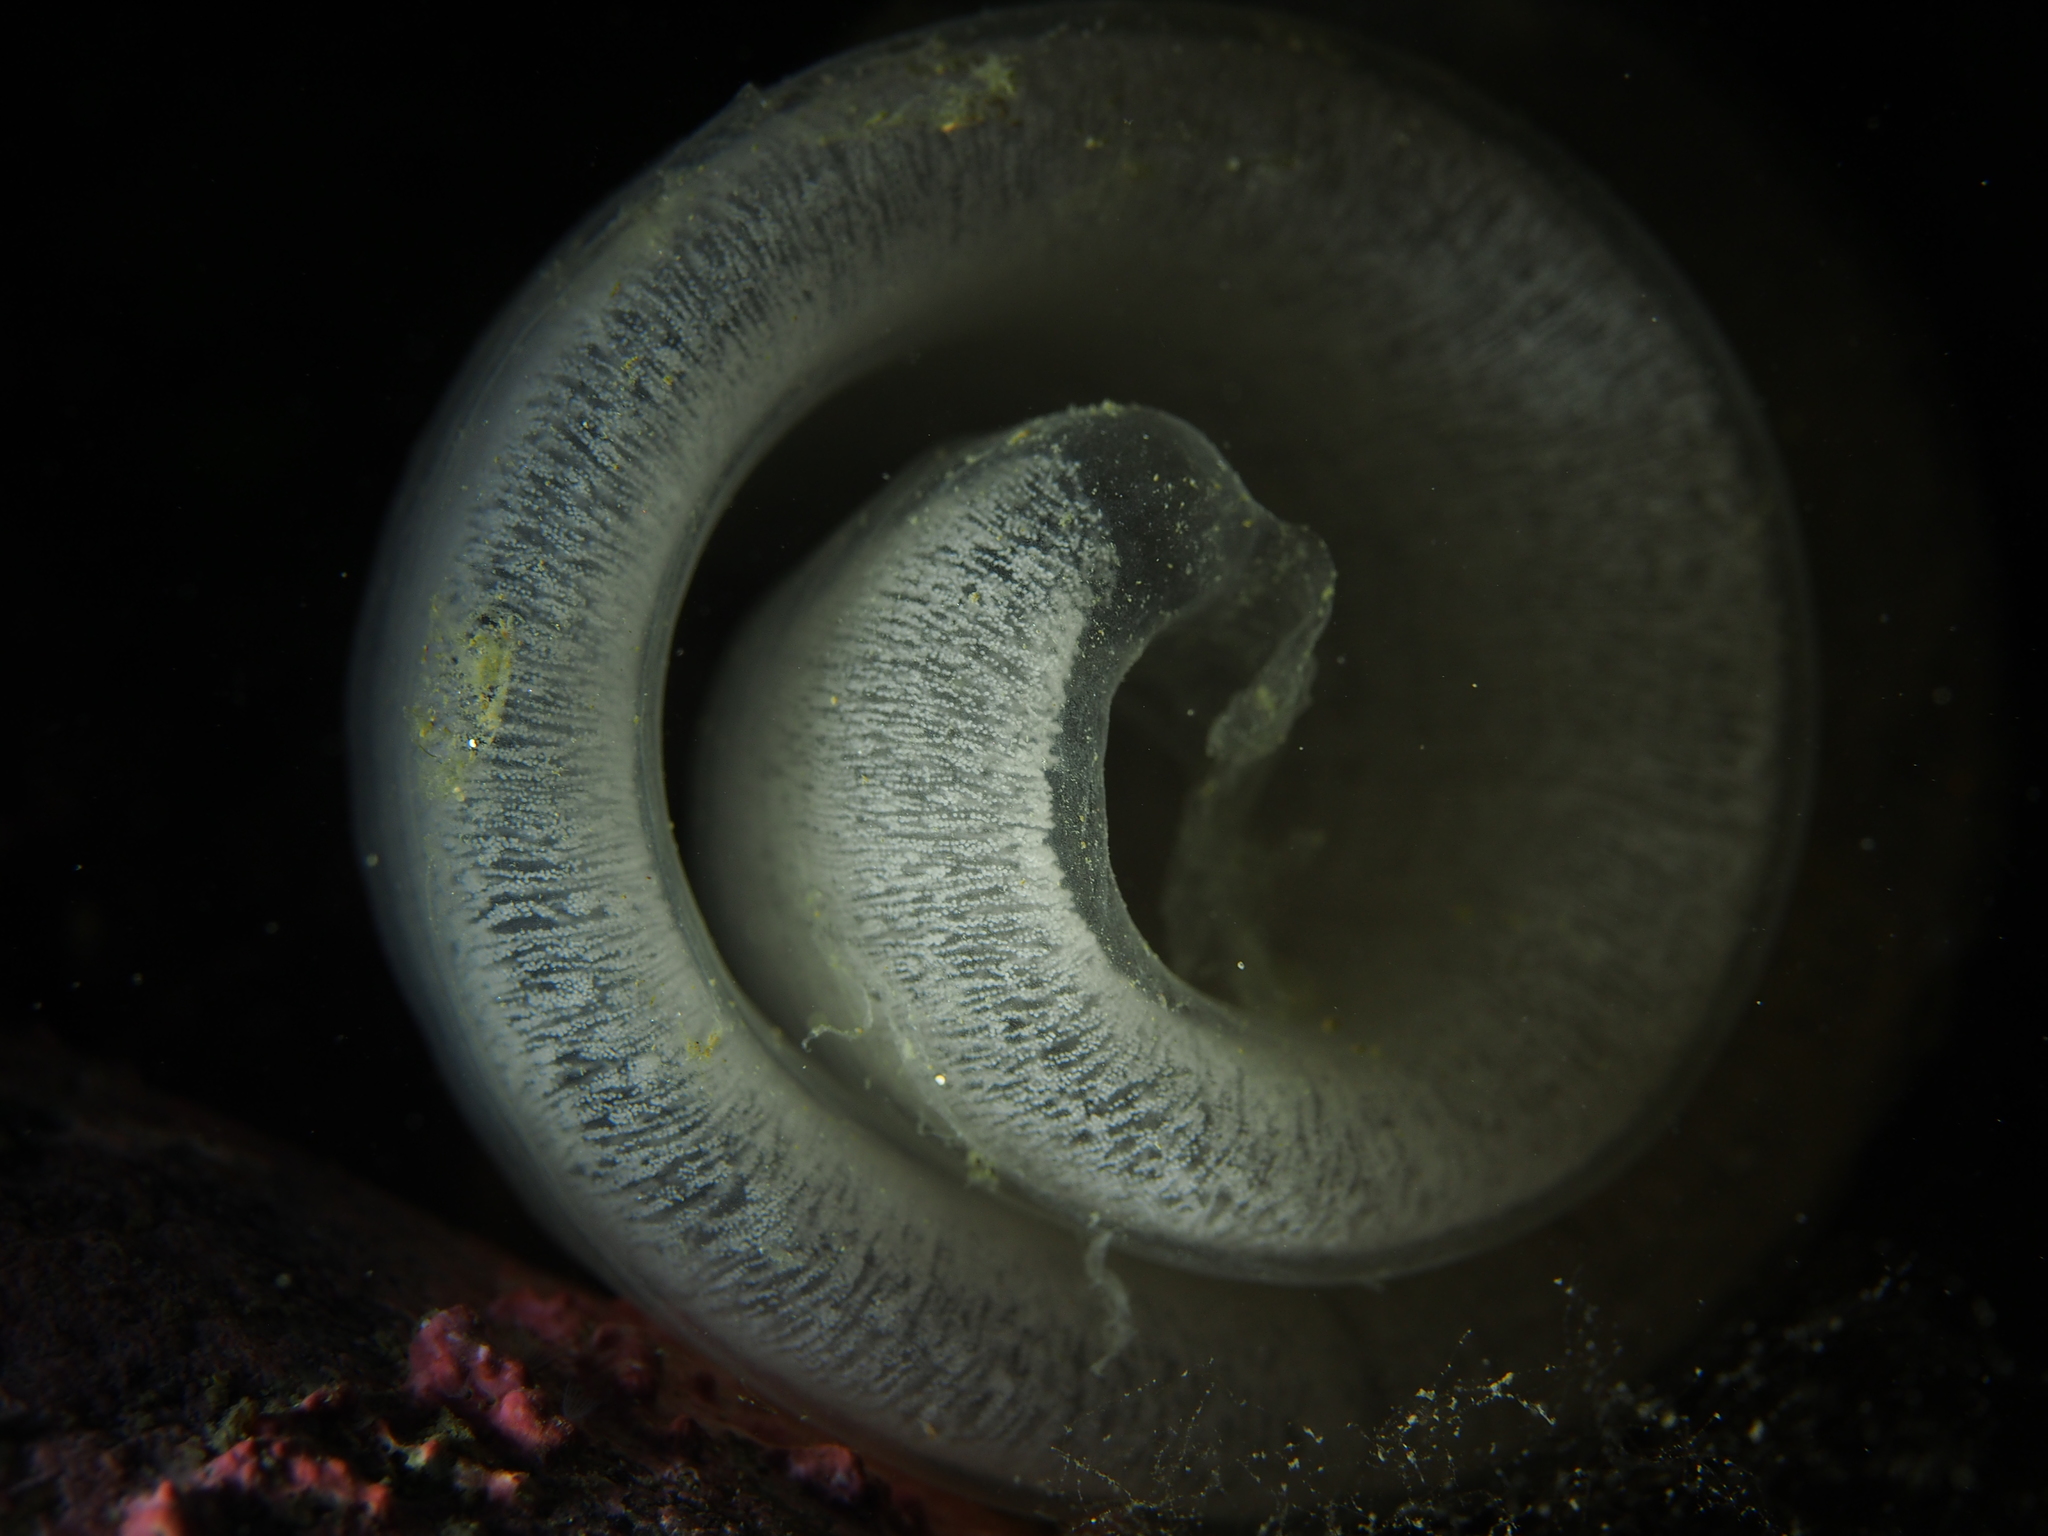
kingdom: Animalia
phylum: Mollusca
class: Gastropoda
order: Pleurobranchida
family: Pleurobranchidae
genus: Pleurobranchus
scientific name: Pleurobranchus membranaceus
